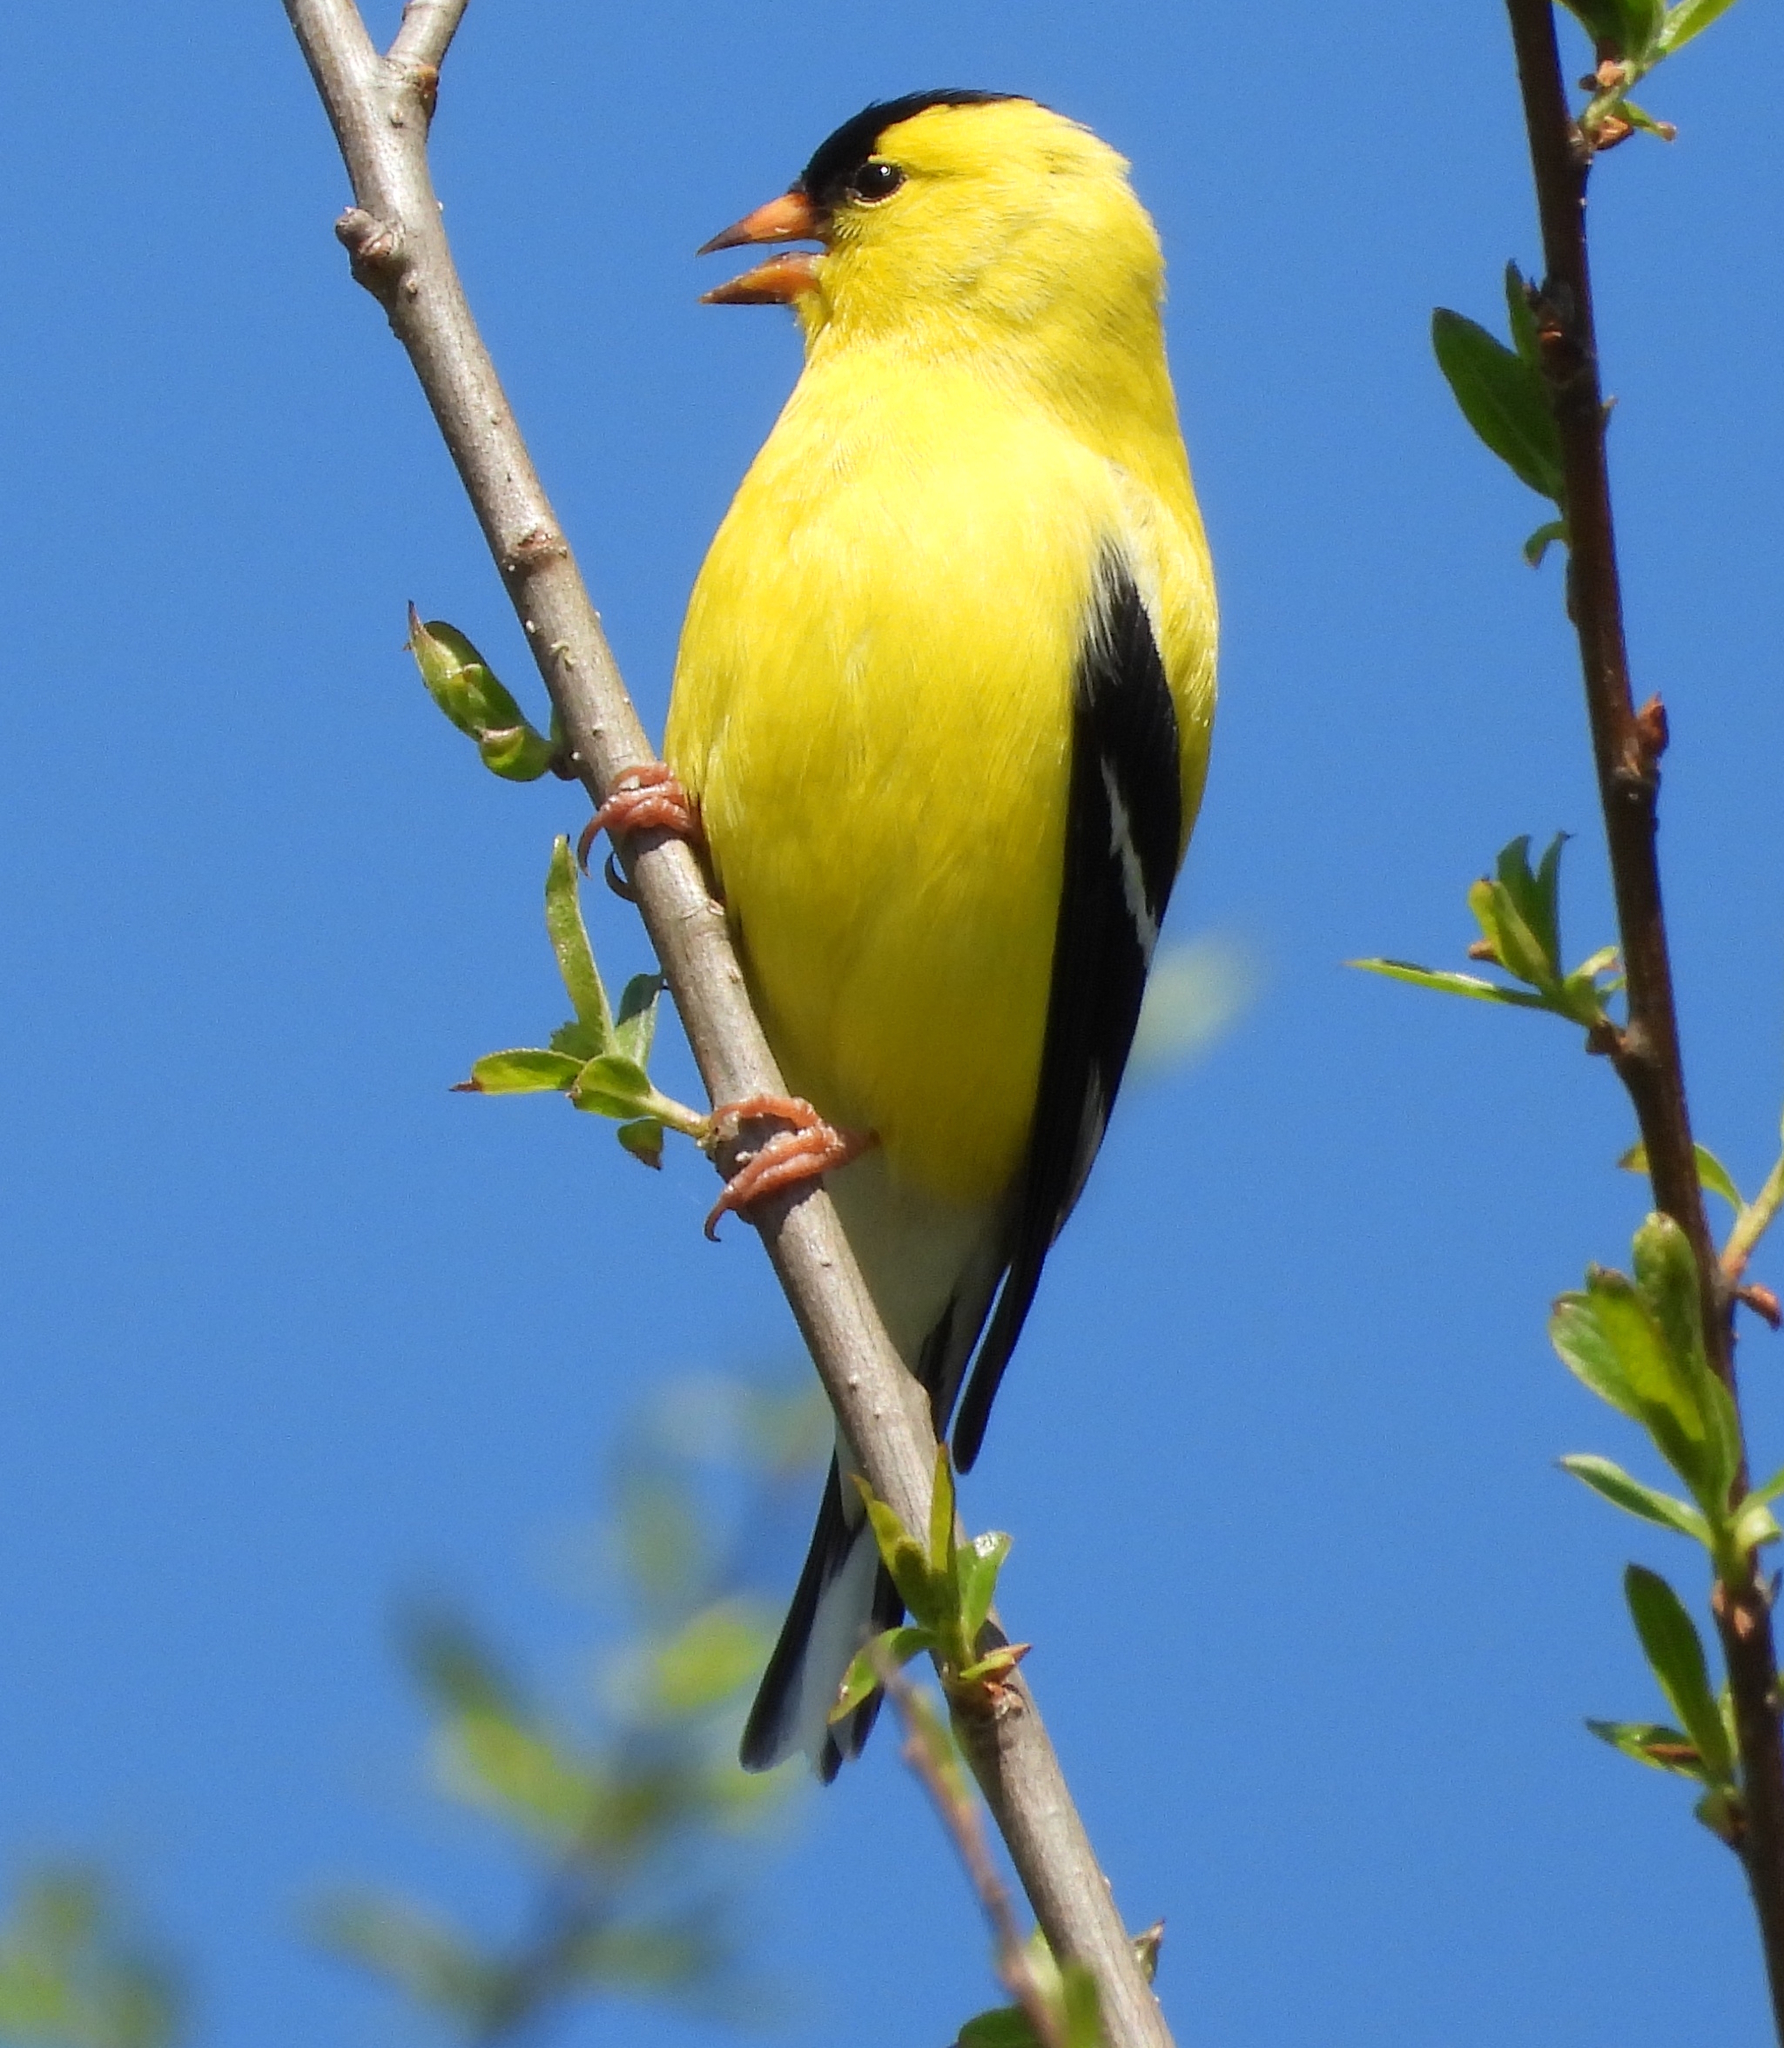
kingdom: Animalia
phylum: Chordata
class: Aves
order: Passeriformes
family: Fringillidae
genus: Spinus
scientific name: Spinus tristis
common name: American goldfinch
